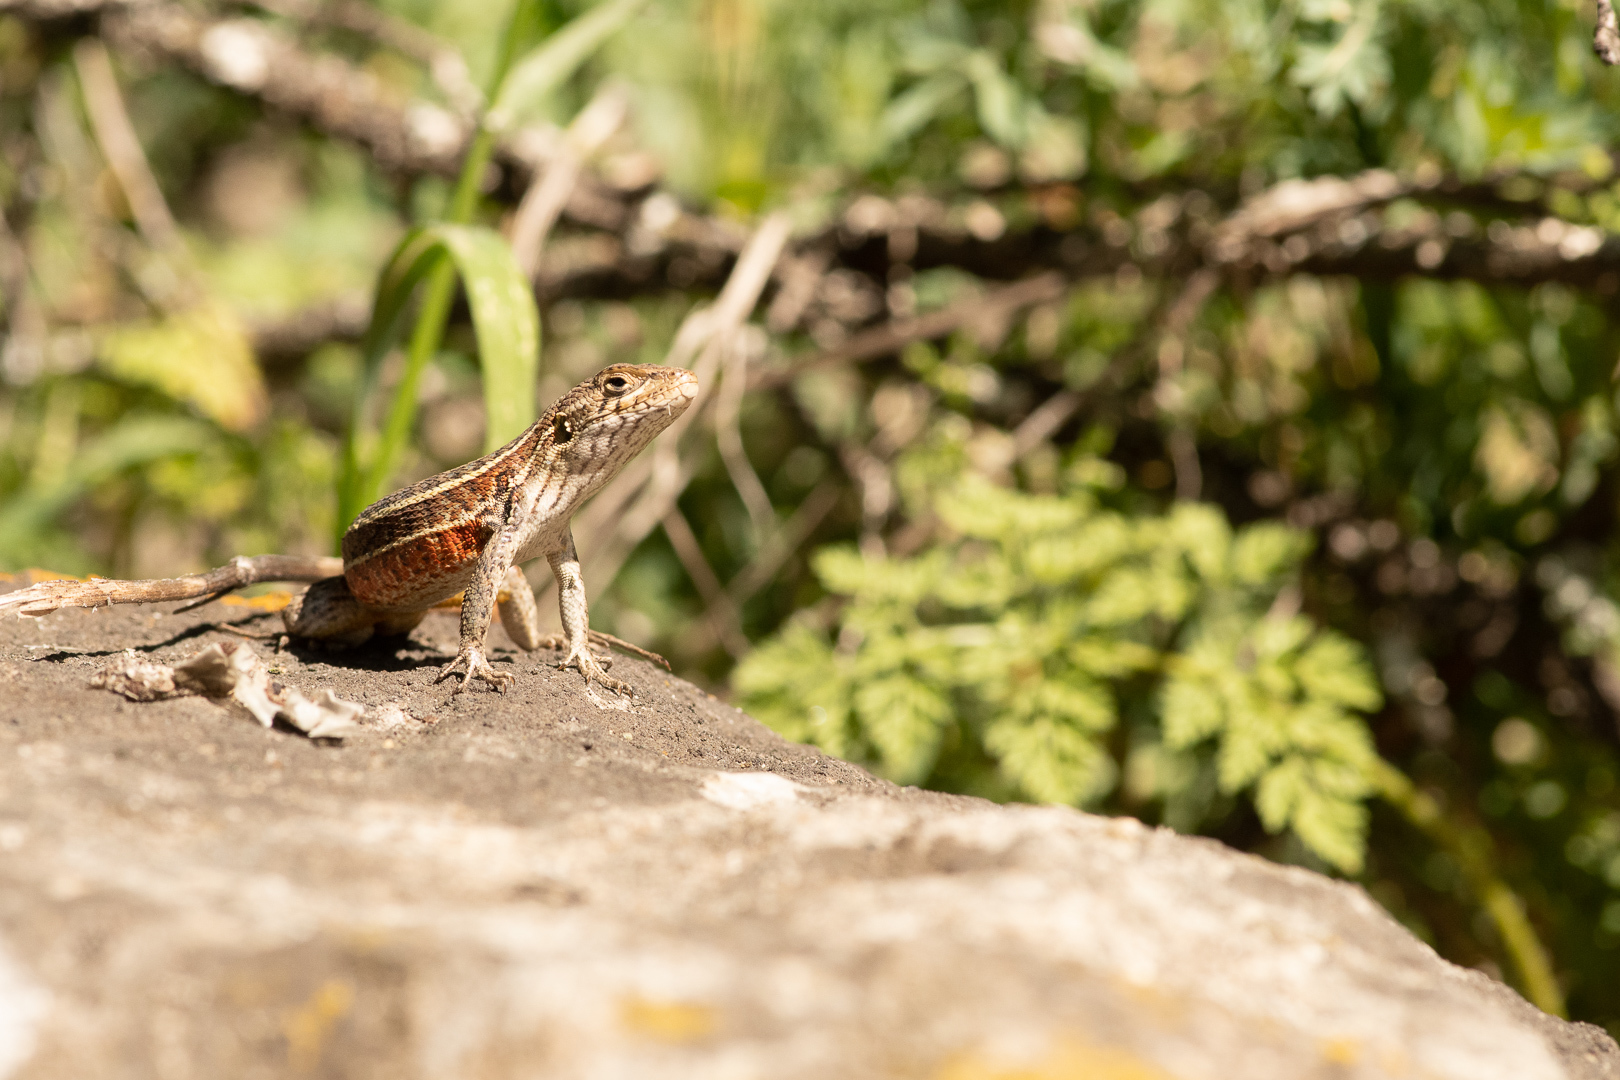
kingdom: Animalia
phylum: Chordata
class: Squamata
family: Liolaemidae
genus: Liolaemus
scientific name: Liolaemus lemniscatus
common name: Wreath tree iguana
